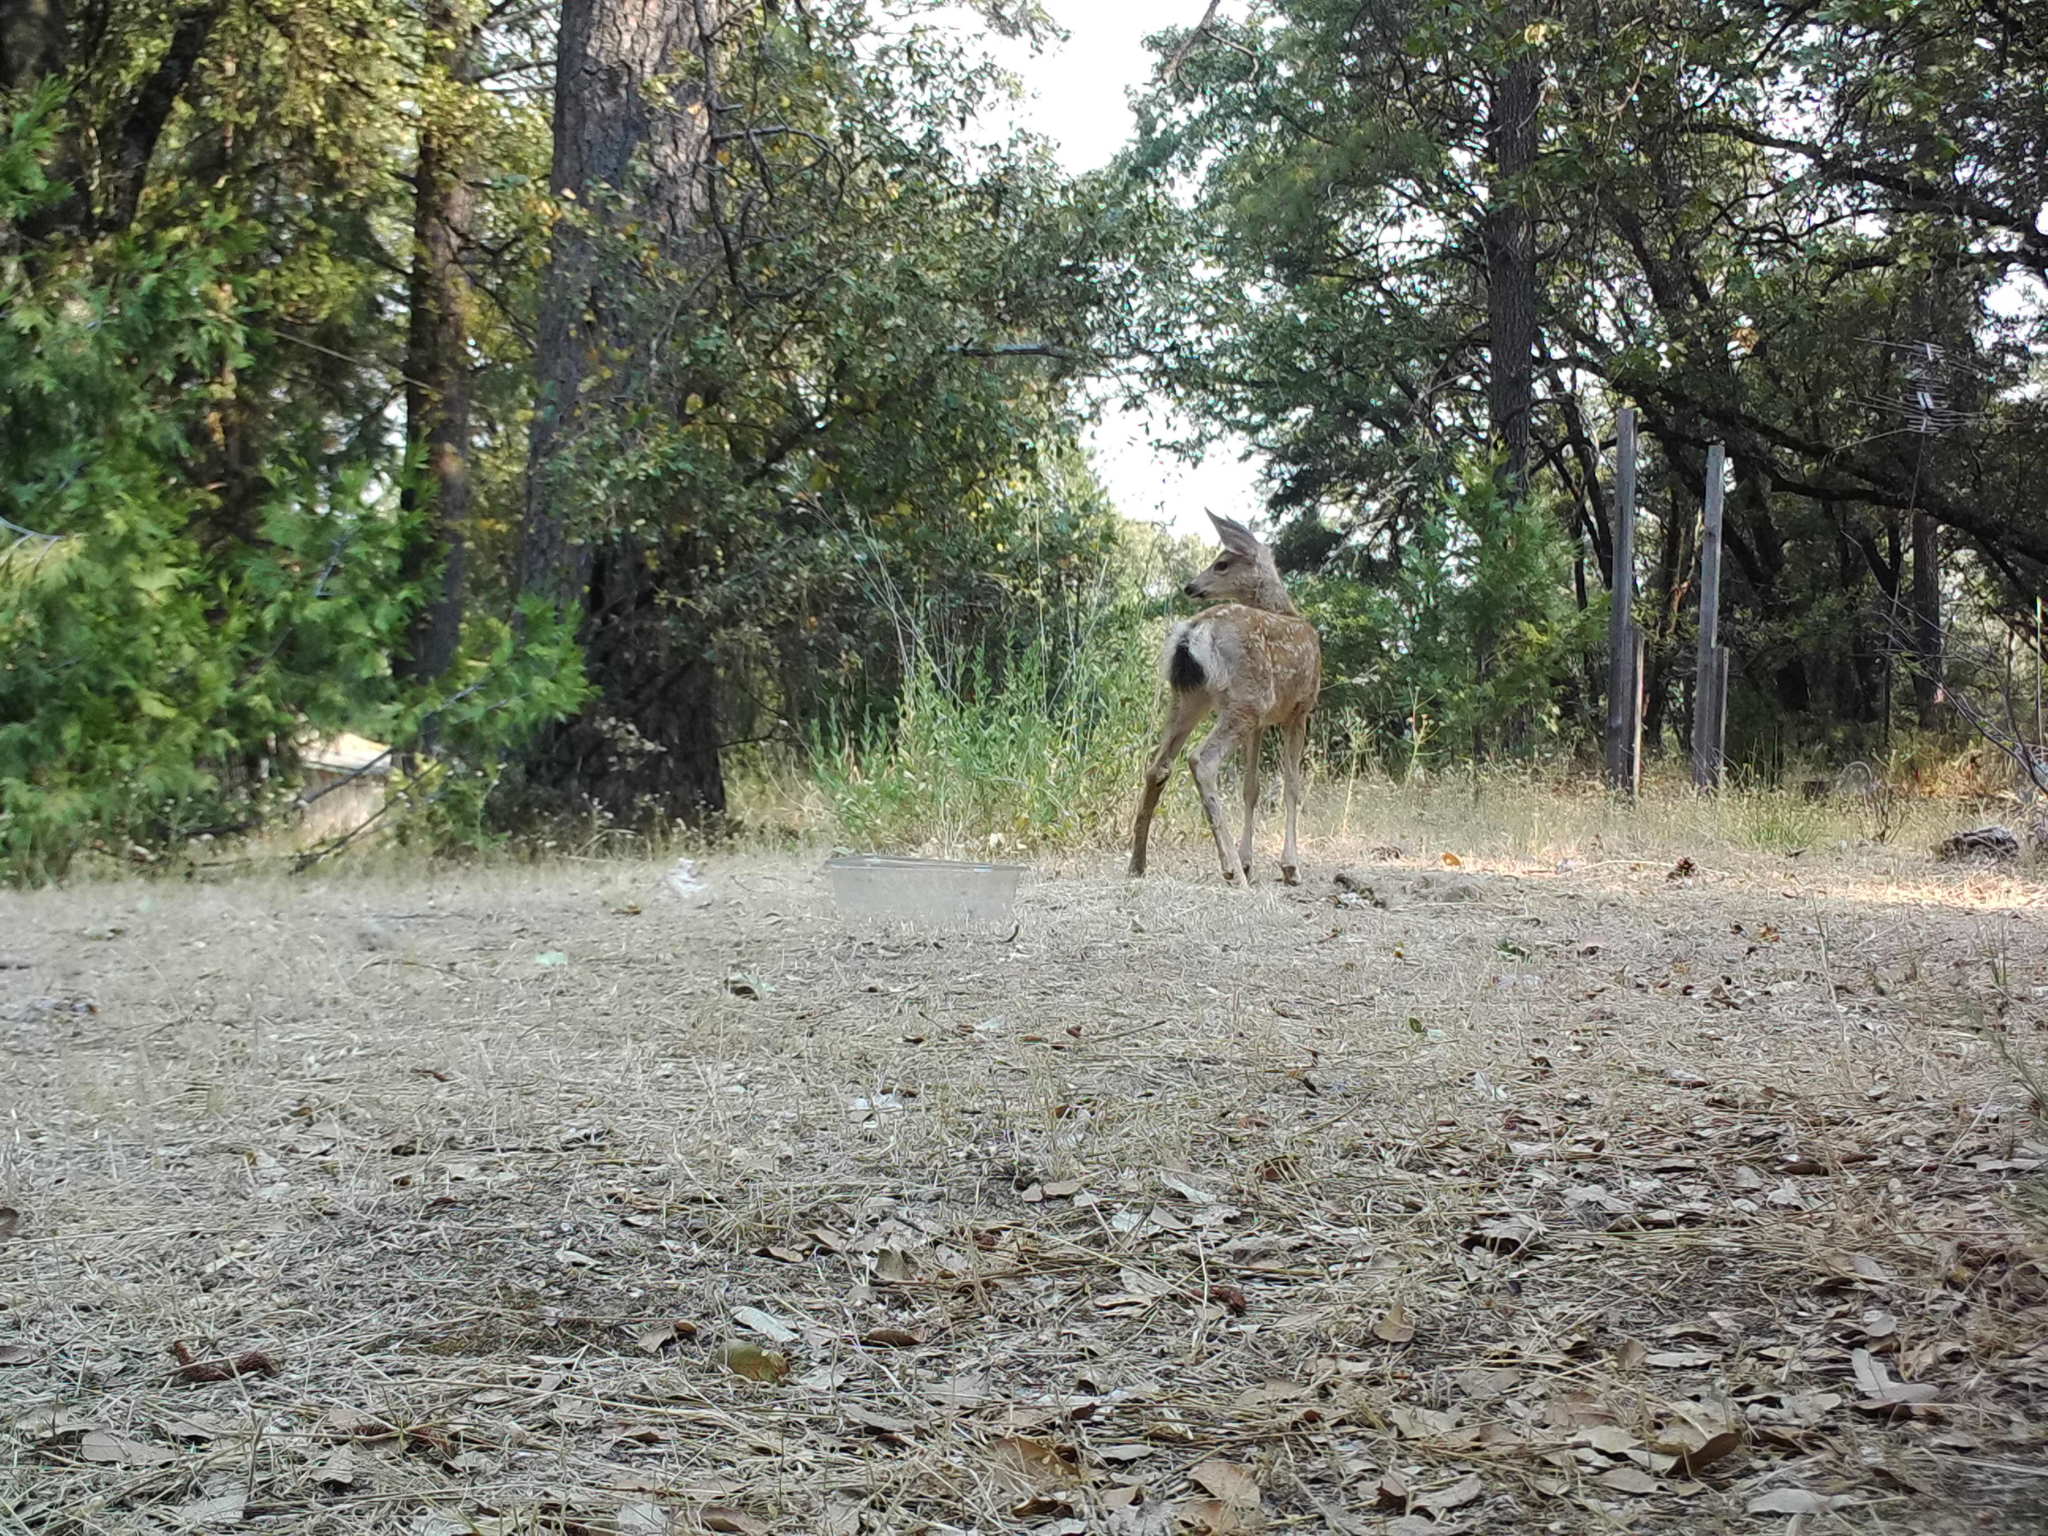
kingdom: Animalia
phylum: Chordata
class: Mammalia
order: Artiodactyla
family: Cervidae
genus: Odocoileus
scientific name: Odocoileus hemionus
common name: Mule deer
